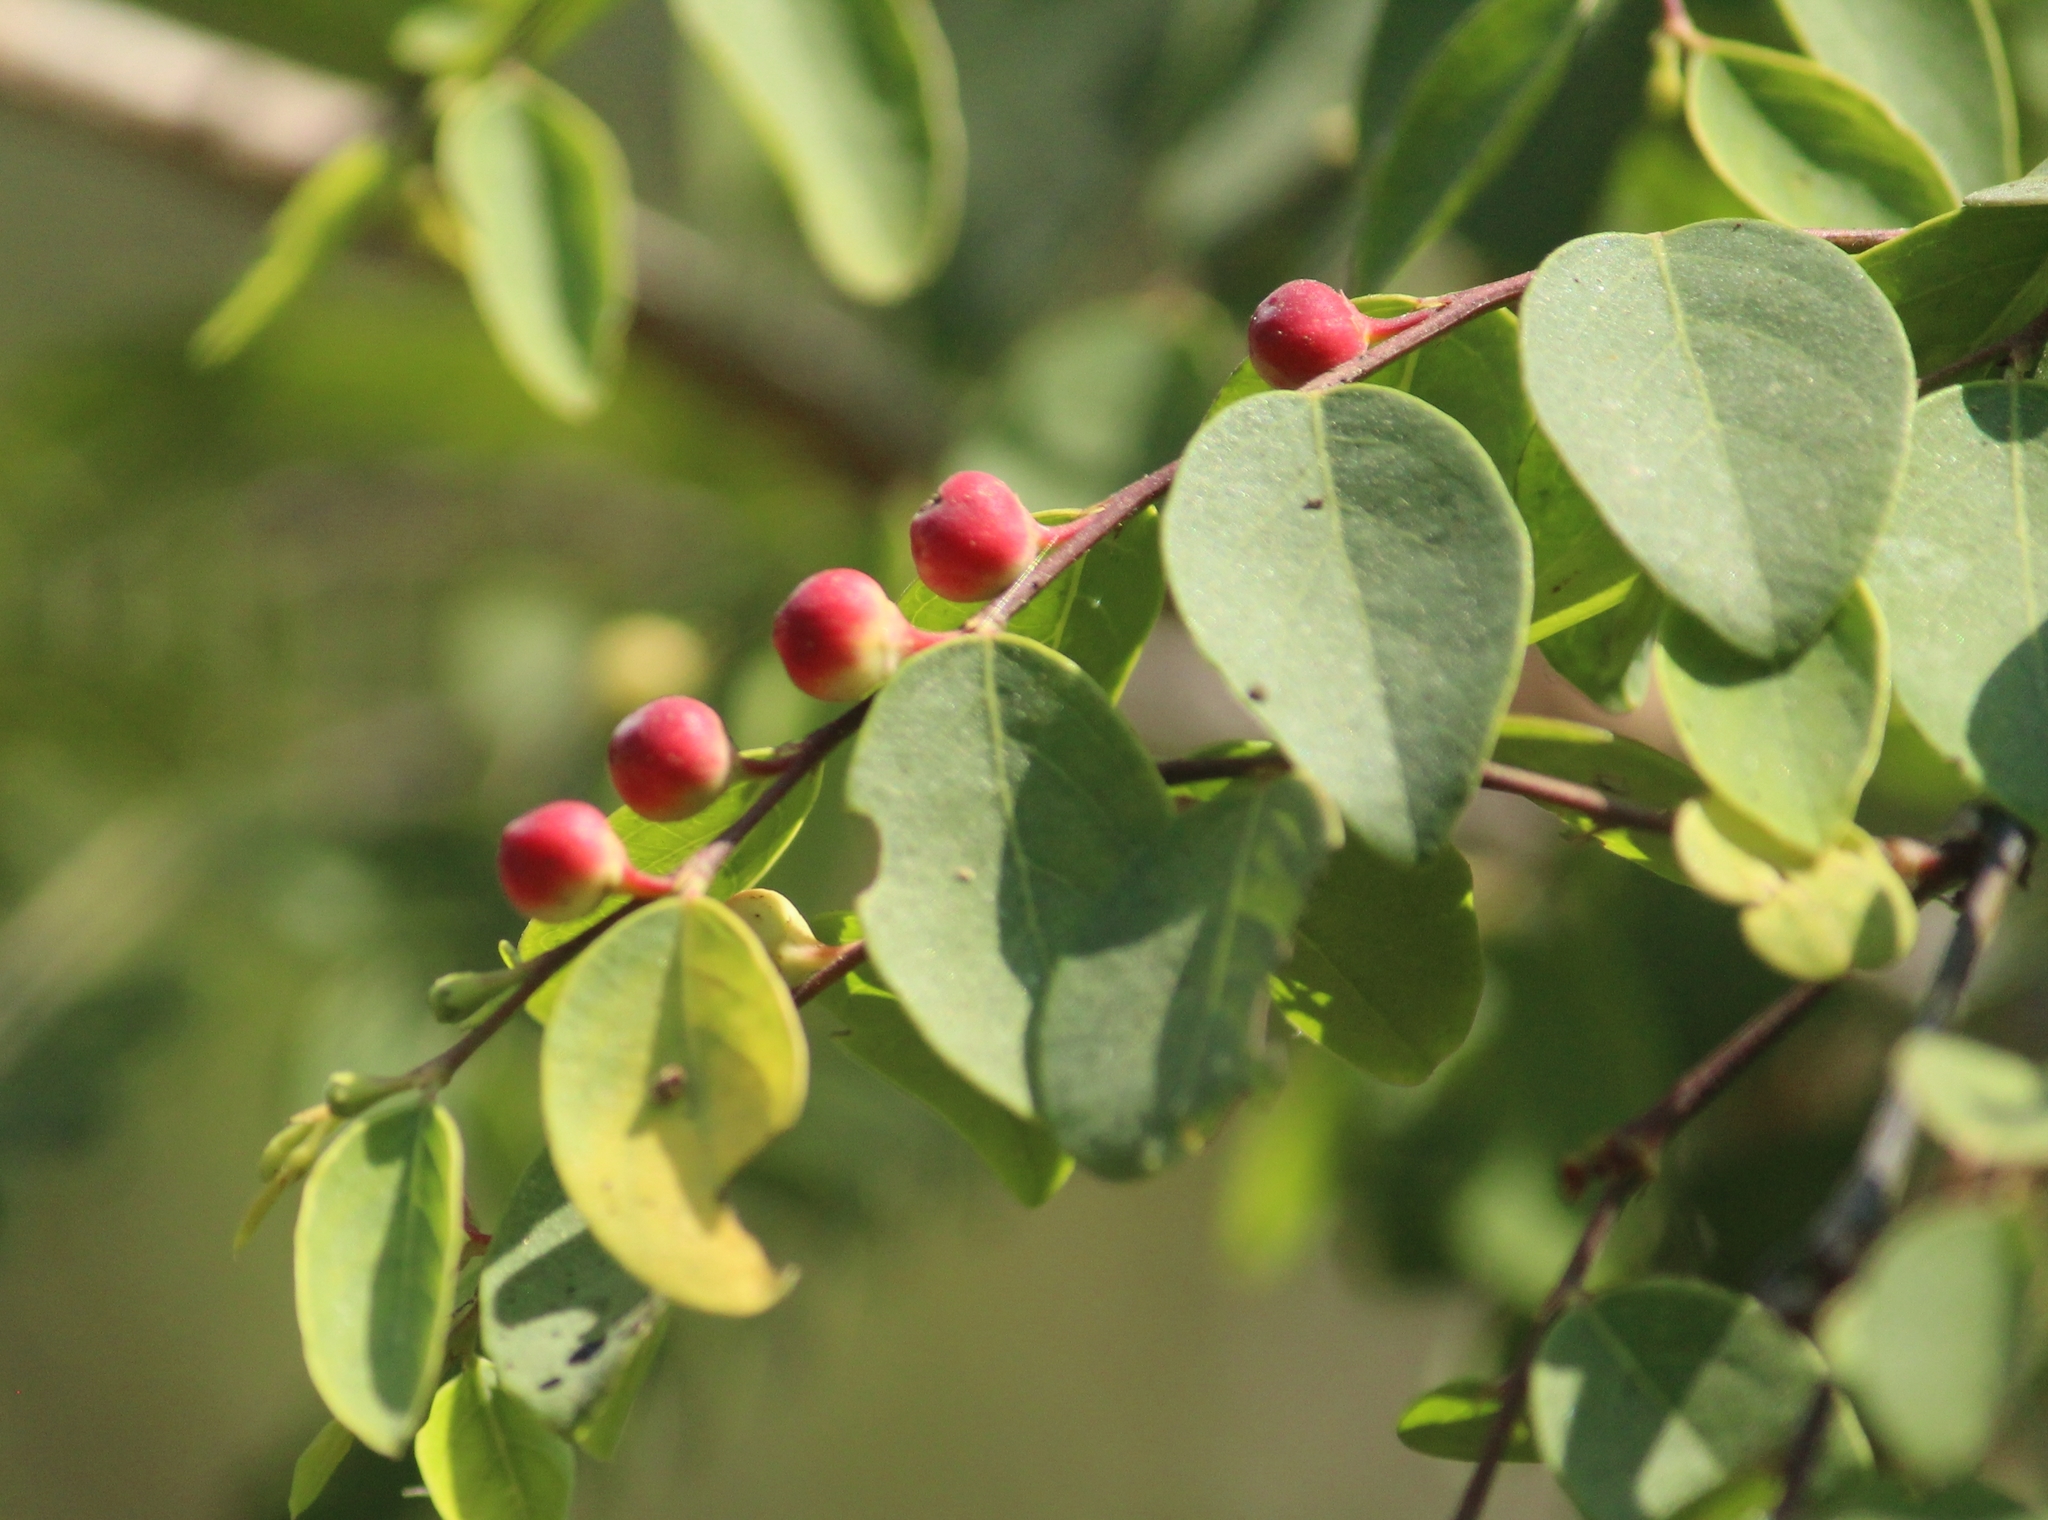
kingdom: Plantae
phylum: Tracheophyta
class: Magnoliopsida
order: Malpighiales
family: Phyllanthaceae
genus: Breynia
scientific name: Breynia vitis-idaea
